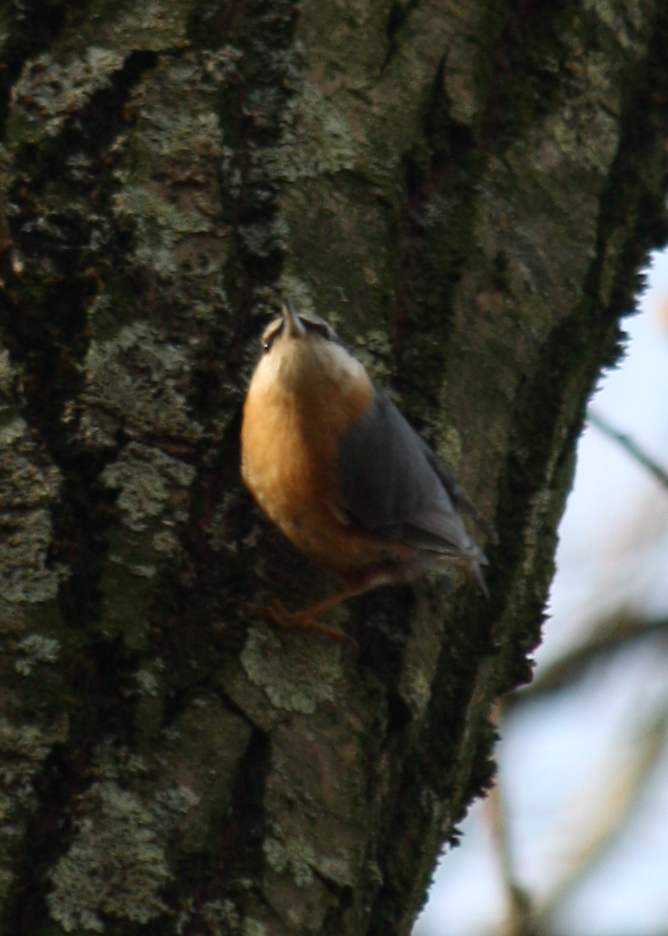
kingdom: Animalia
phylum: Chordata
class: Aves
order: Passeriformes
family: Sittidae
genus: Sitta
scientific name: Sitta europaea
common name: Eurasian nuthatch
